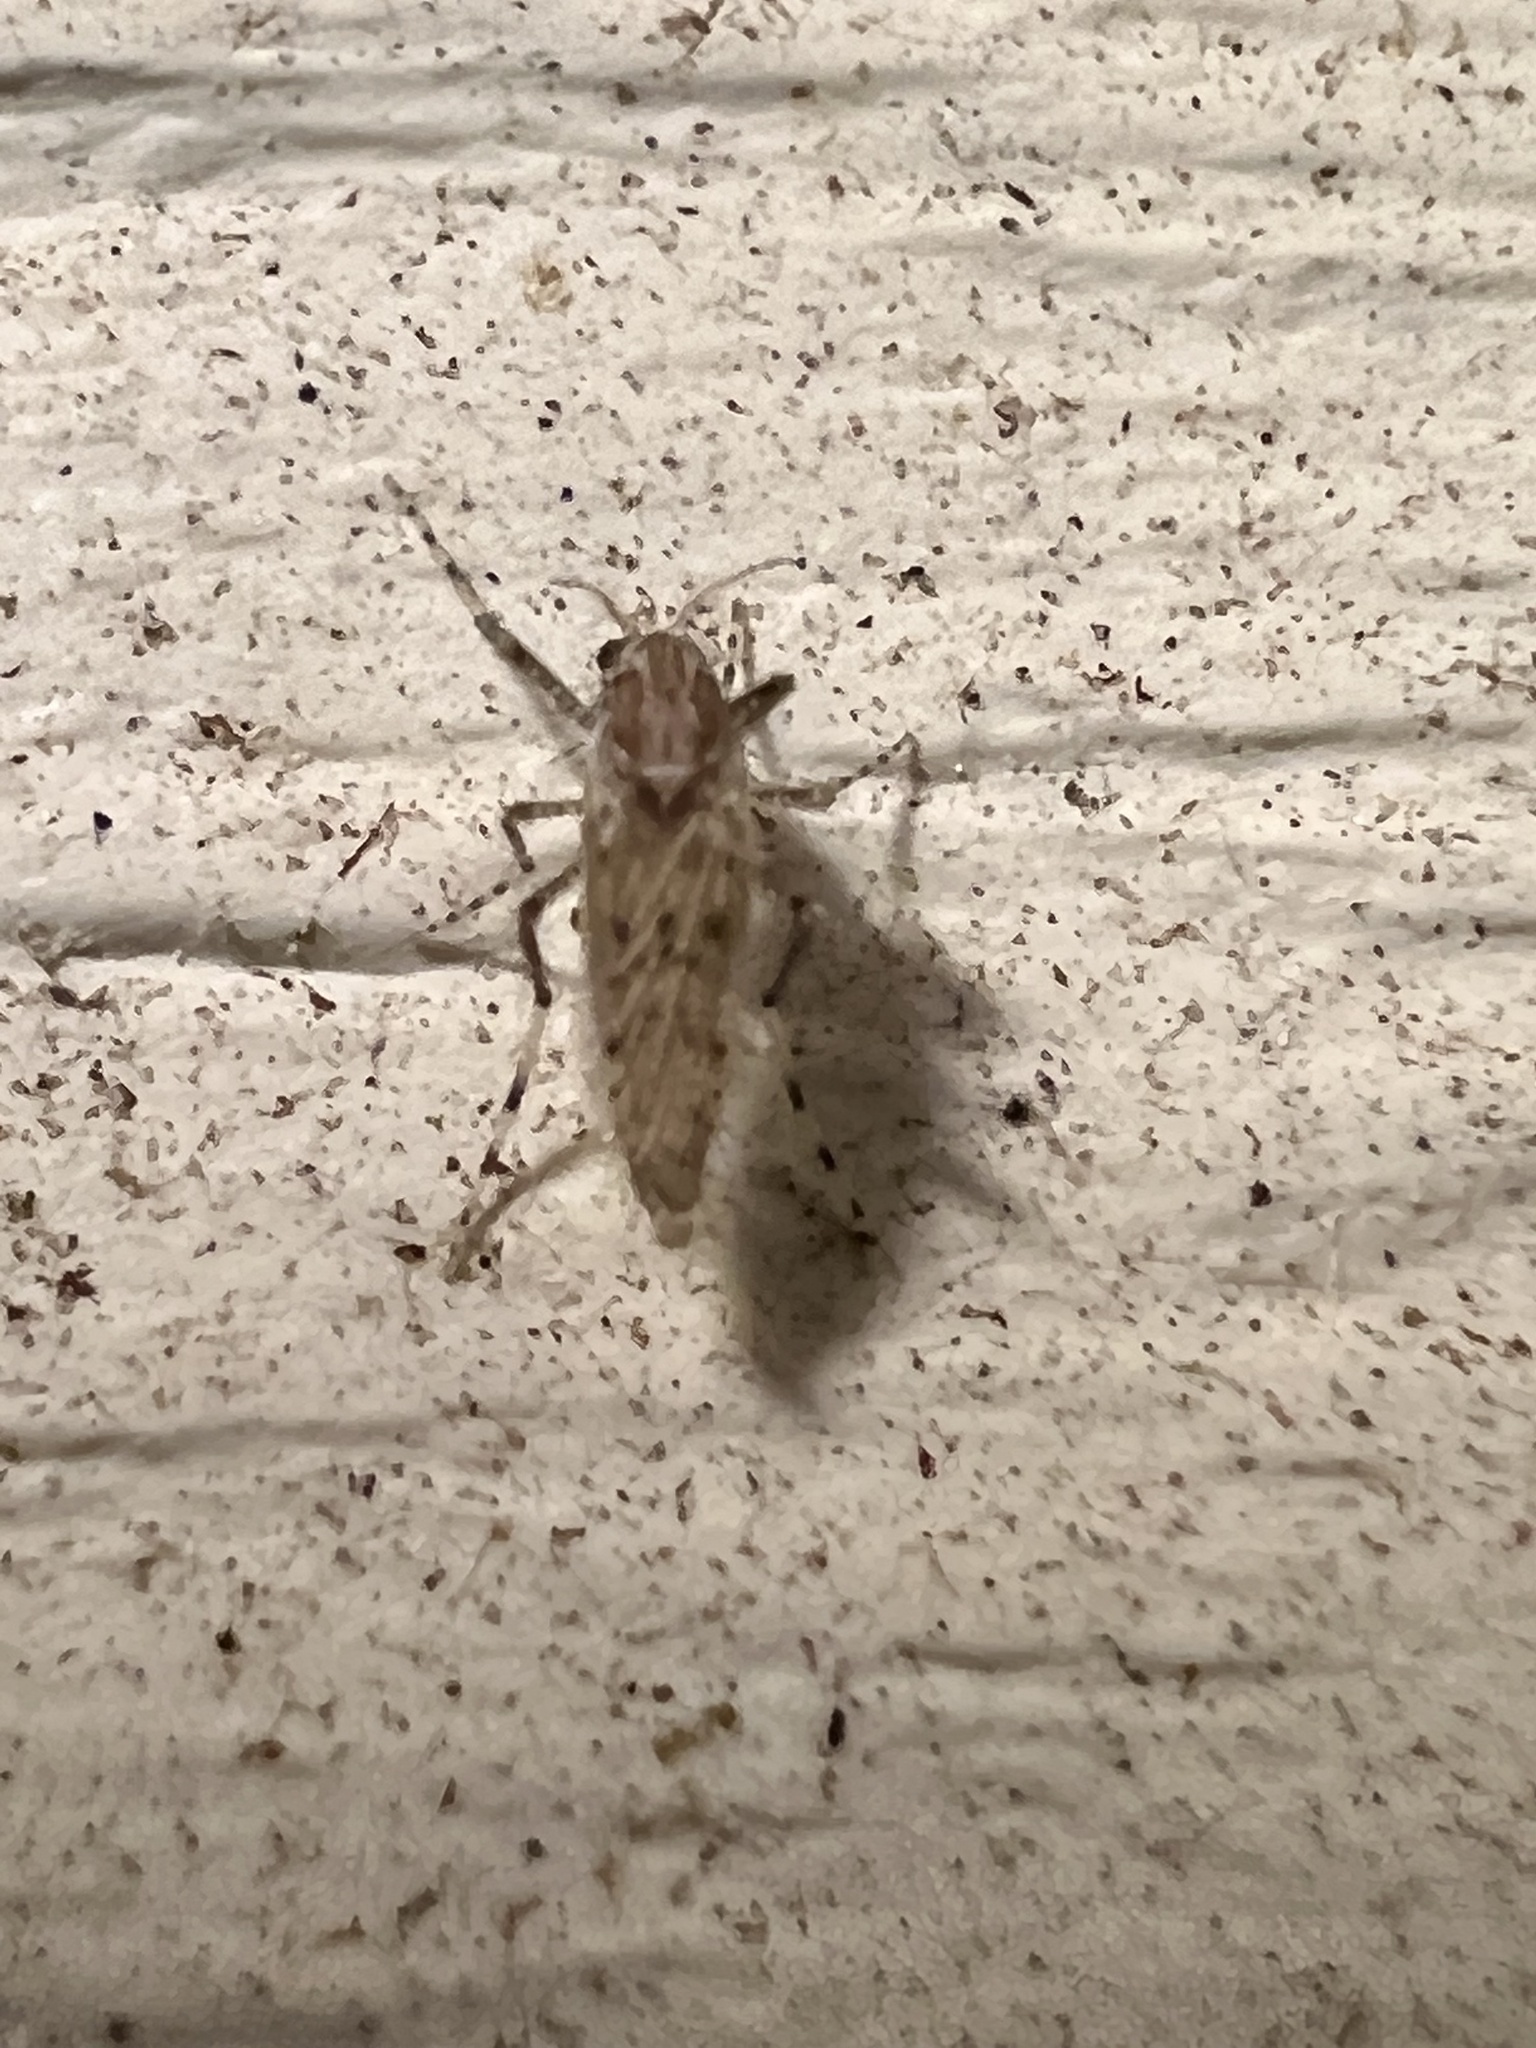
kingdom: Animalia
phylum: Arthropoda
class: Insecta
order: Diptera
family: Chaoboridae
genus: Chaoborus
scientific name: Chaoborus punctipennis
